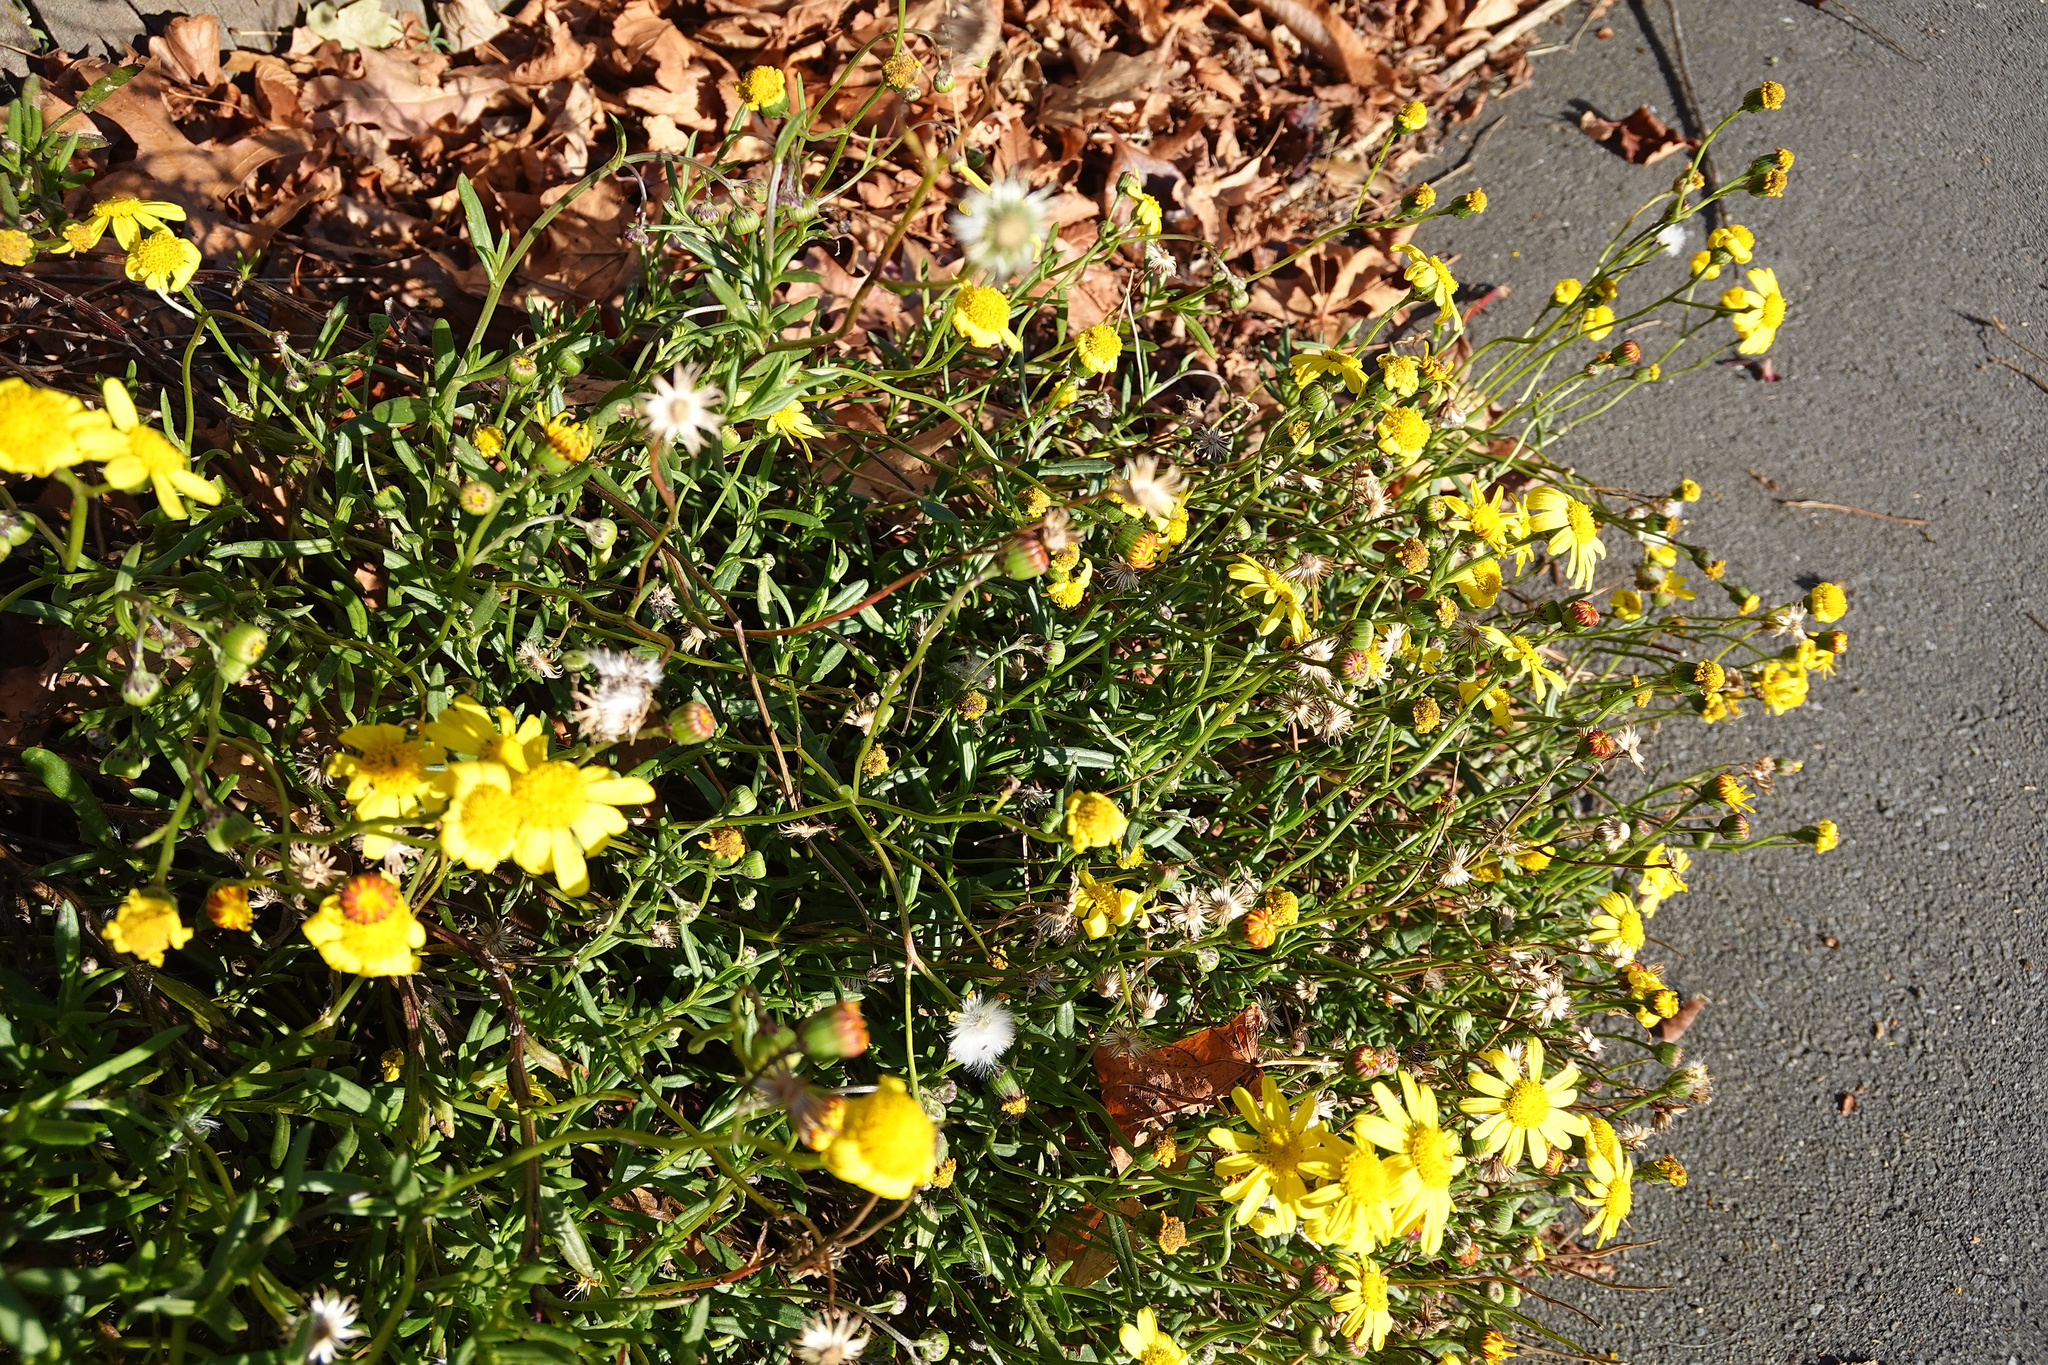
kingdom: Plantae
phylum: Tracheophyta
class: Magnoliopsida
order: Asterales
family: Asteraceae
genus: Senecio
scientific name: Senecio skirrhodon
